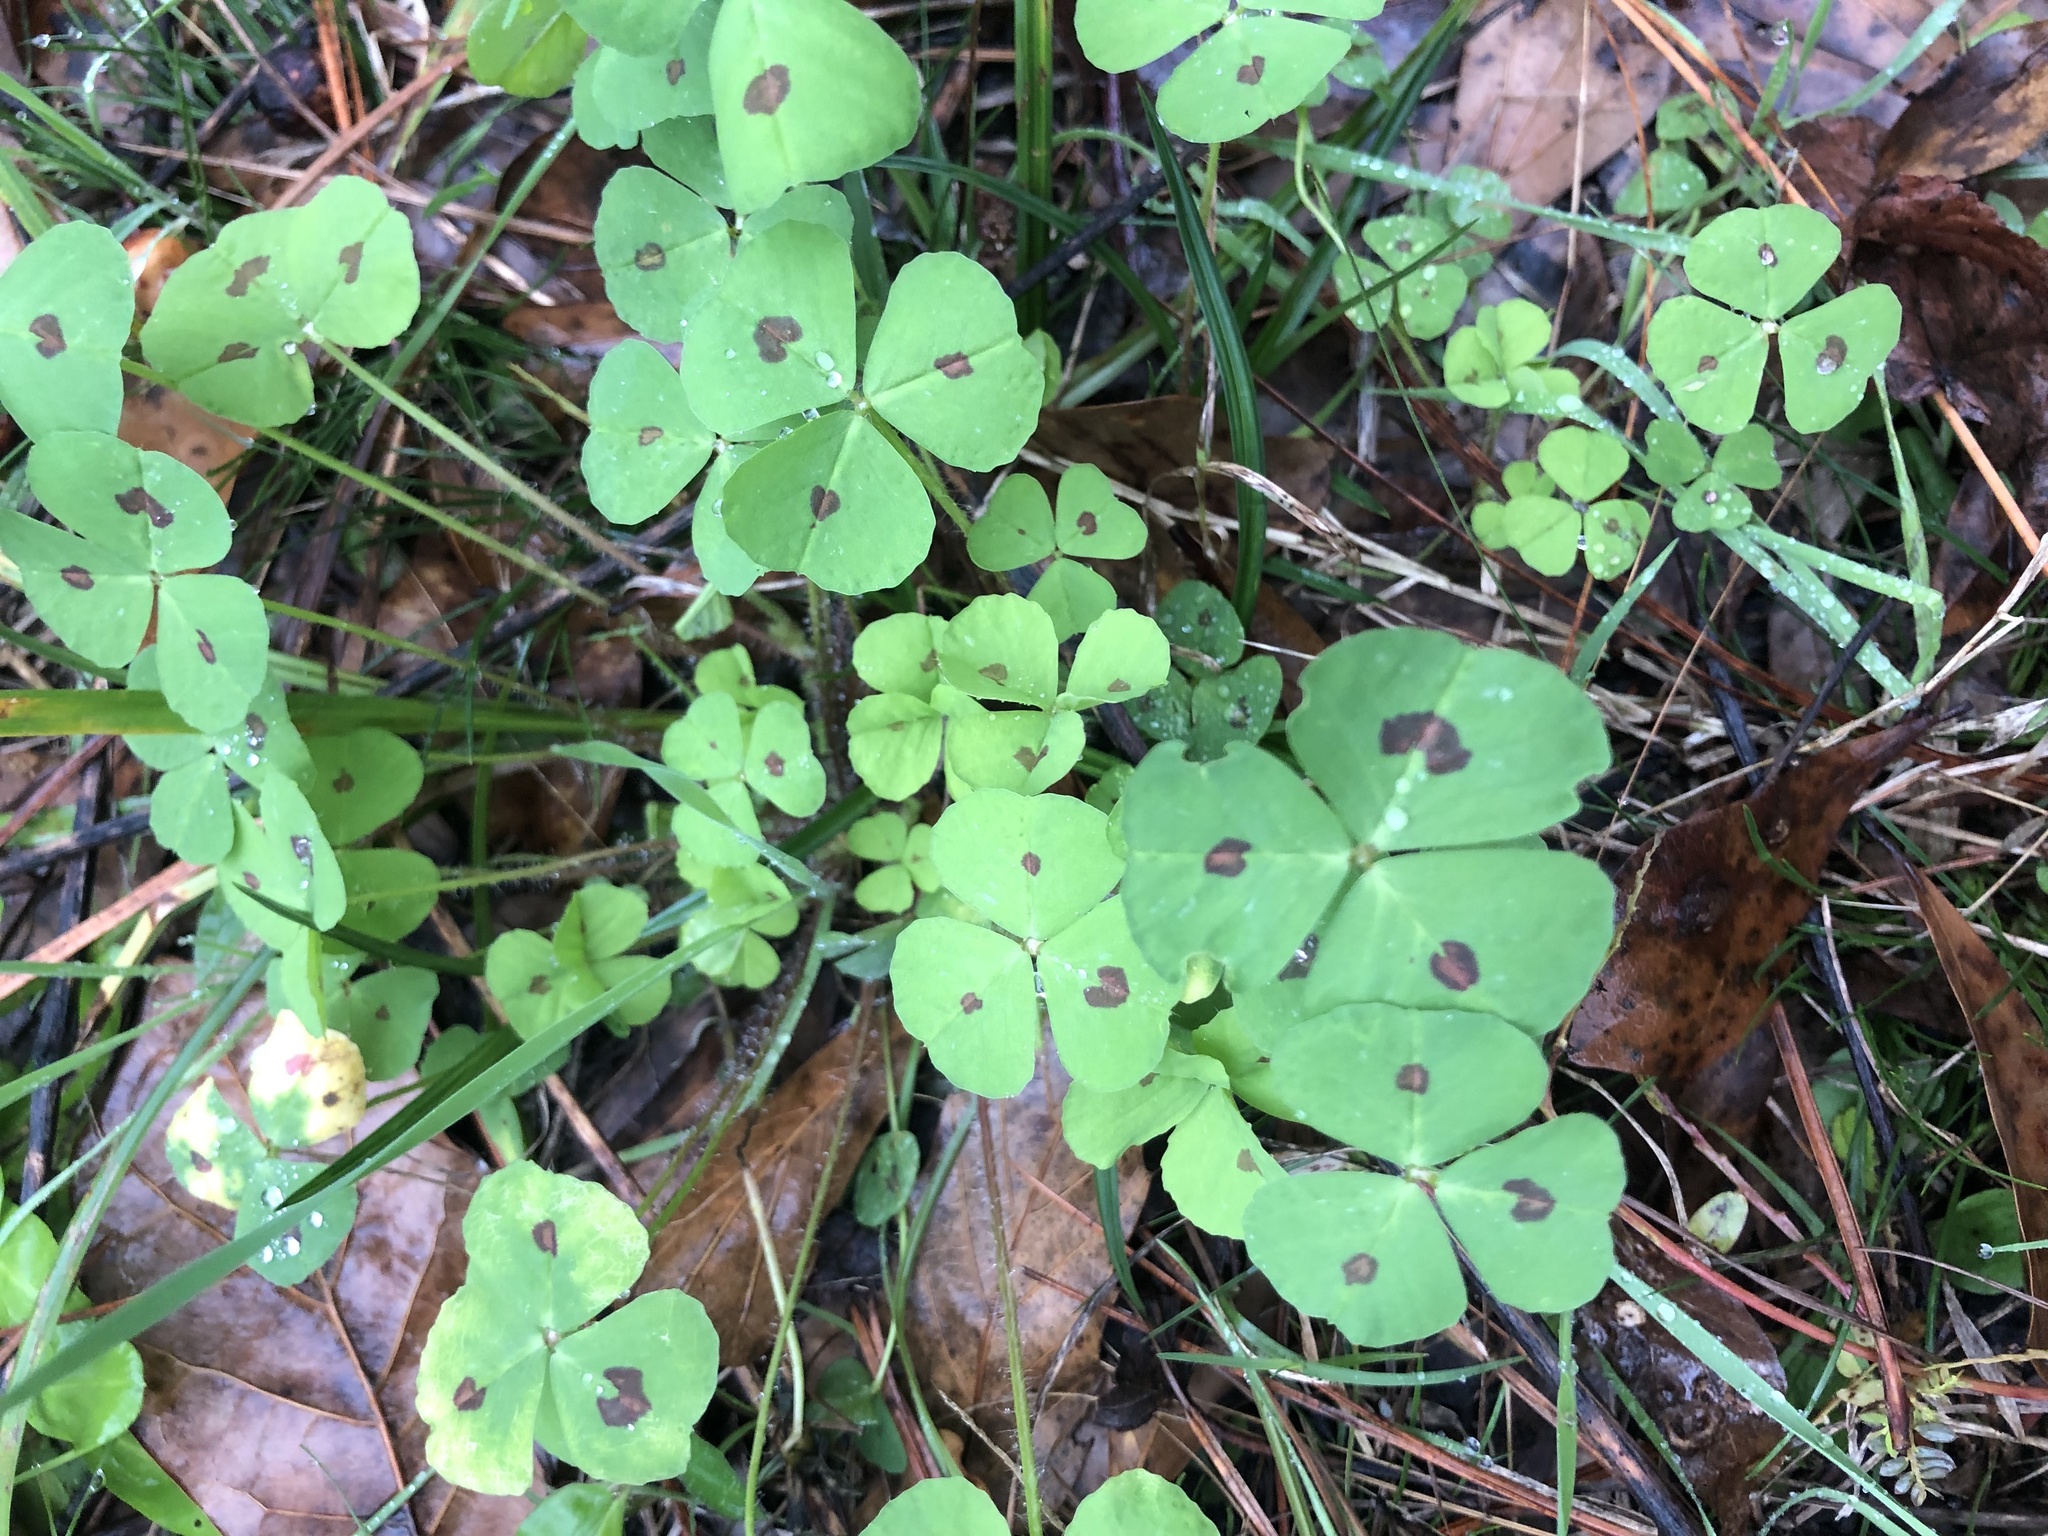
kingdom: Plantae
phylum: Tracheophyta
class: Magnoliopsida
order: Fabales
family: Fabaceae
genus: Medicago
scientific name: Medicago arabica
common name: Spotted medick
